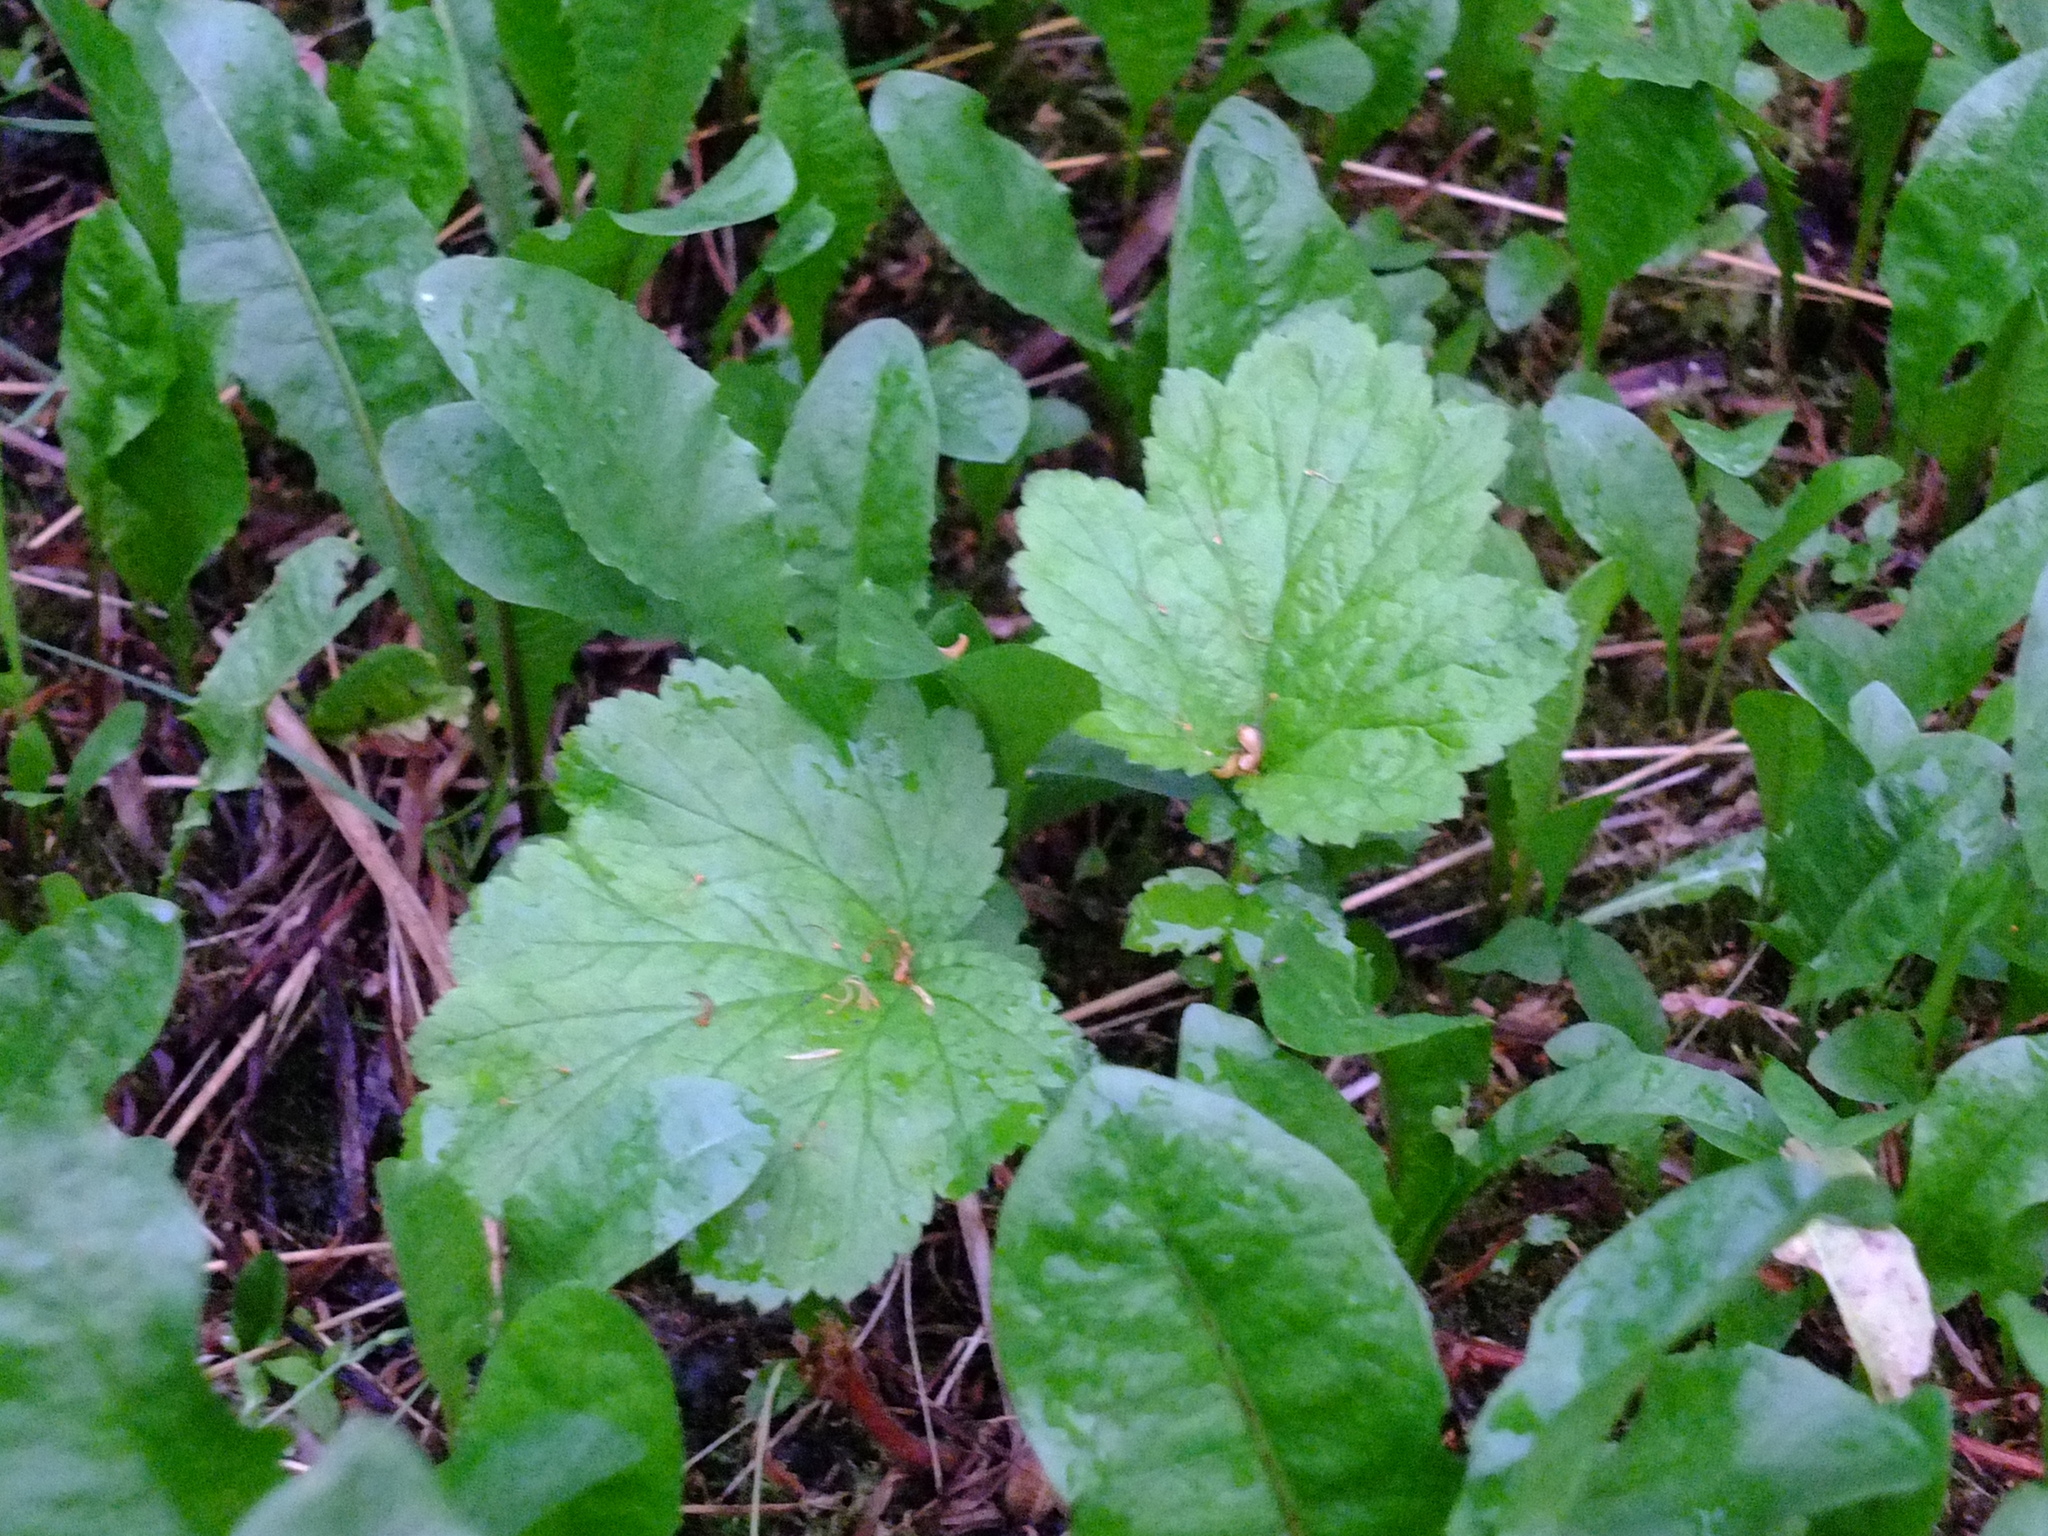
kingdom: Plantae
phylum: Tracheophyta
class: Magnoliopsida
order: Rosales
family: Rosaceae
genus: Geum
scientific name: Geum
